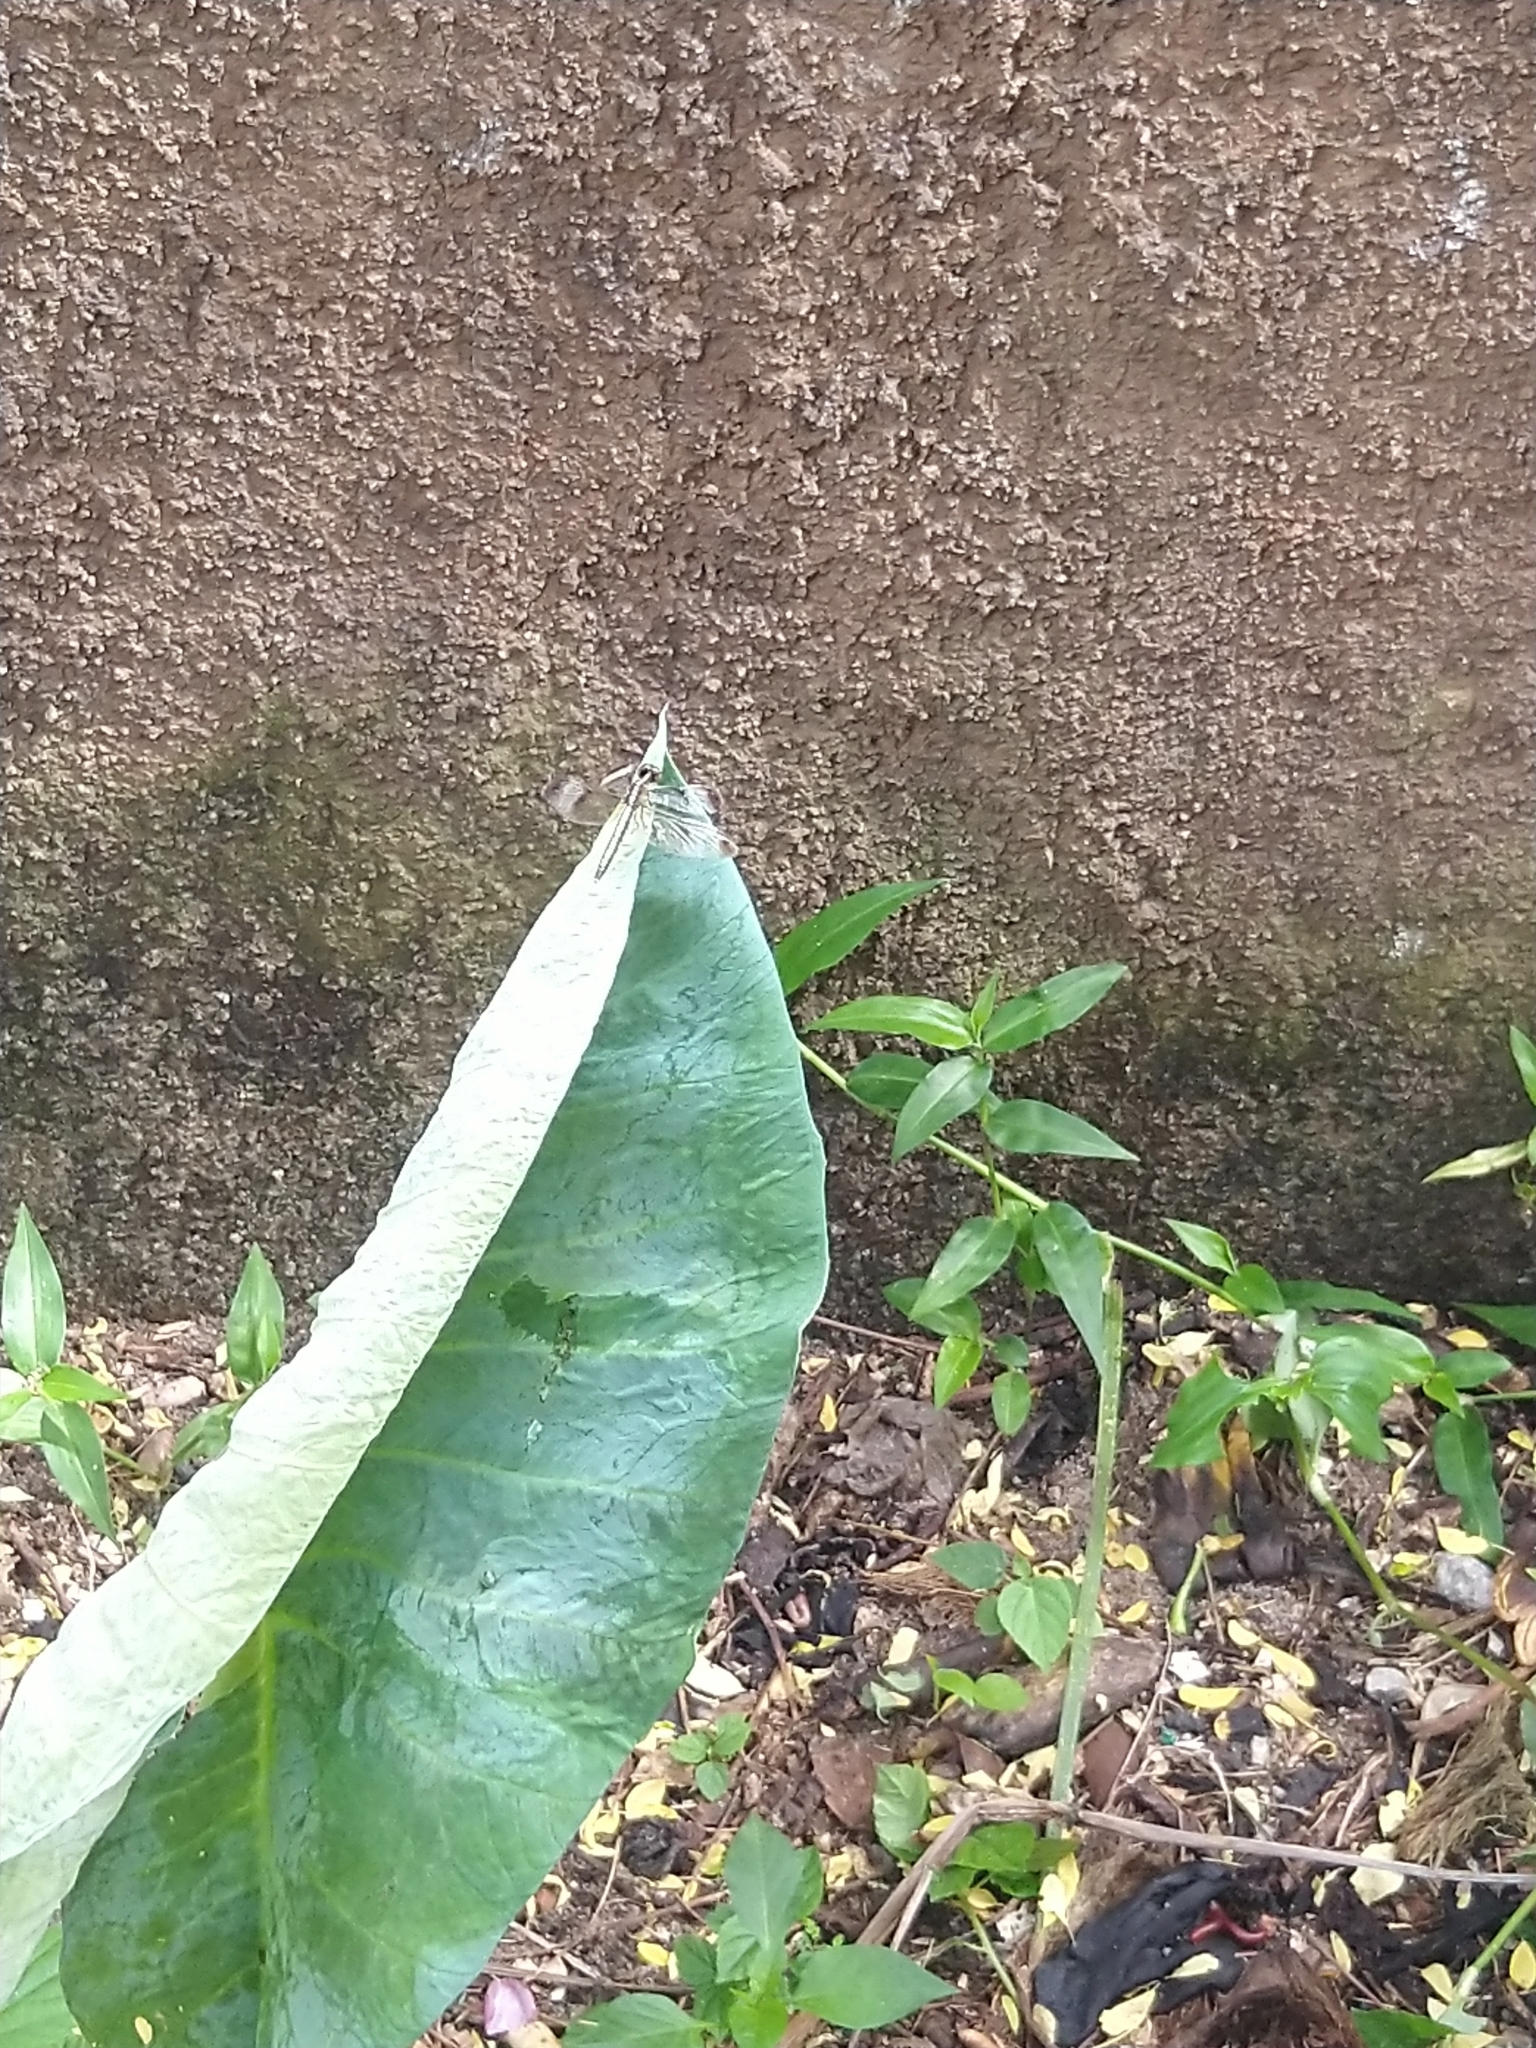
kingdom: Animalia
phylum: Arthropoda
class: Insecta
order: Odonata
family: Libellulidae
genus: Neurothemis
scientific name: Neurothemis tullia
